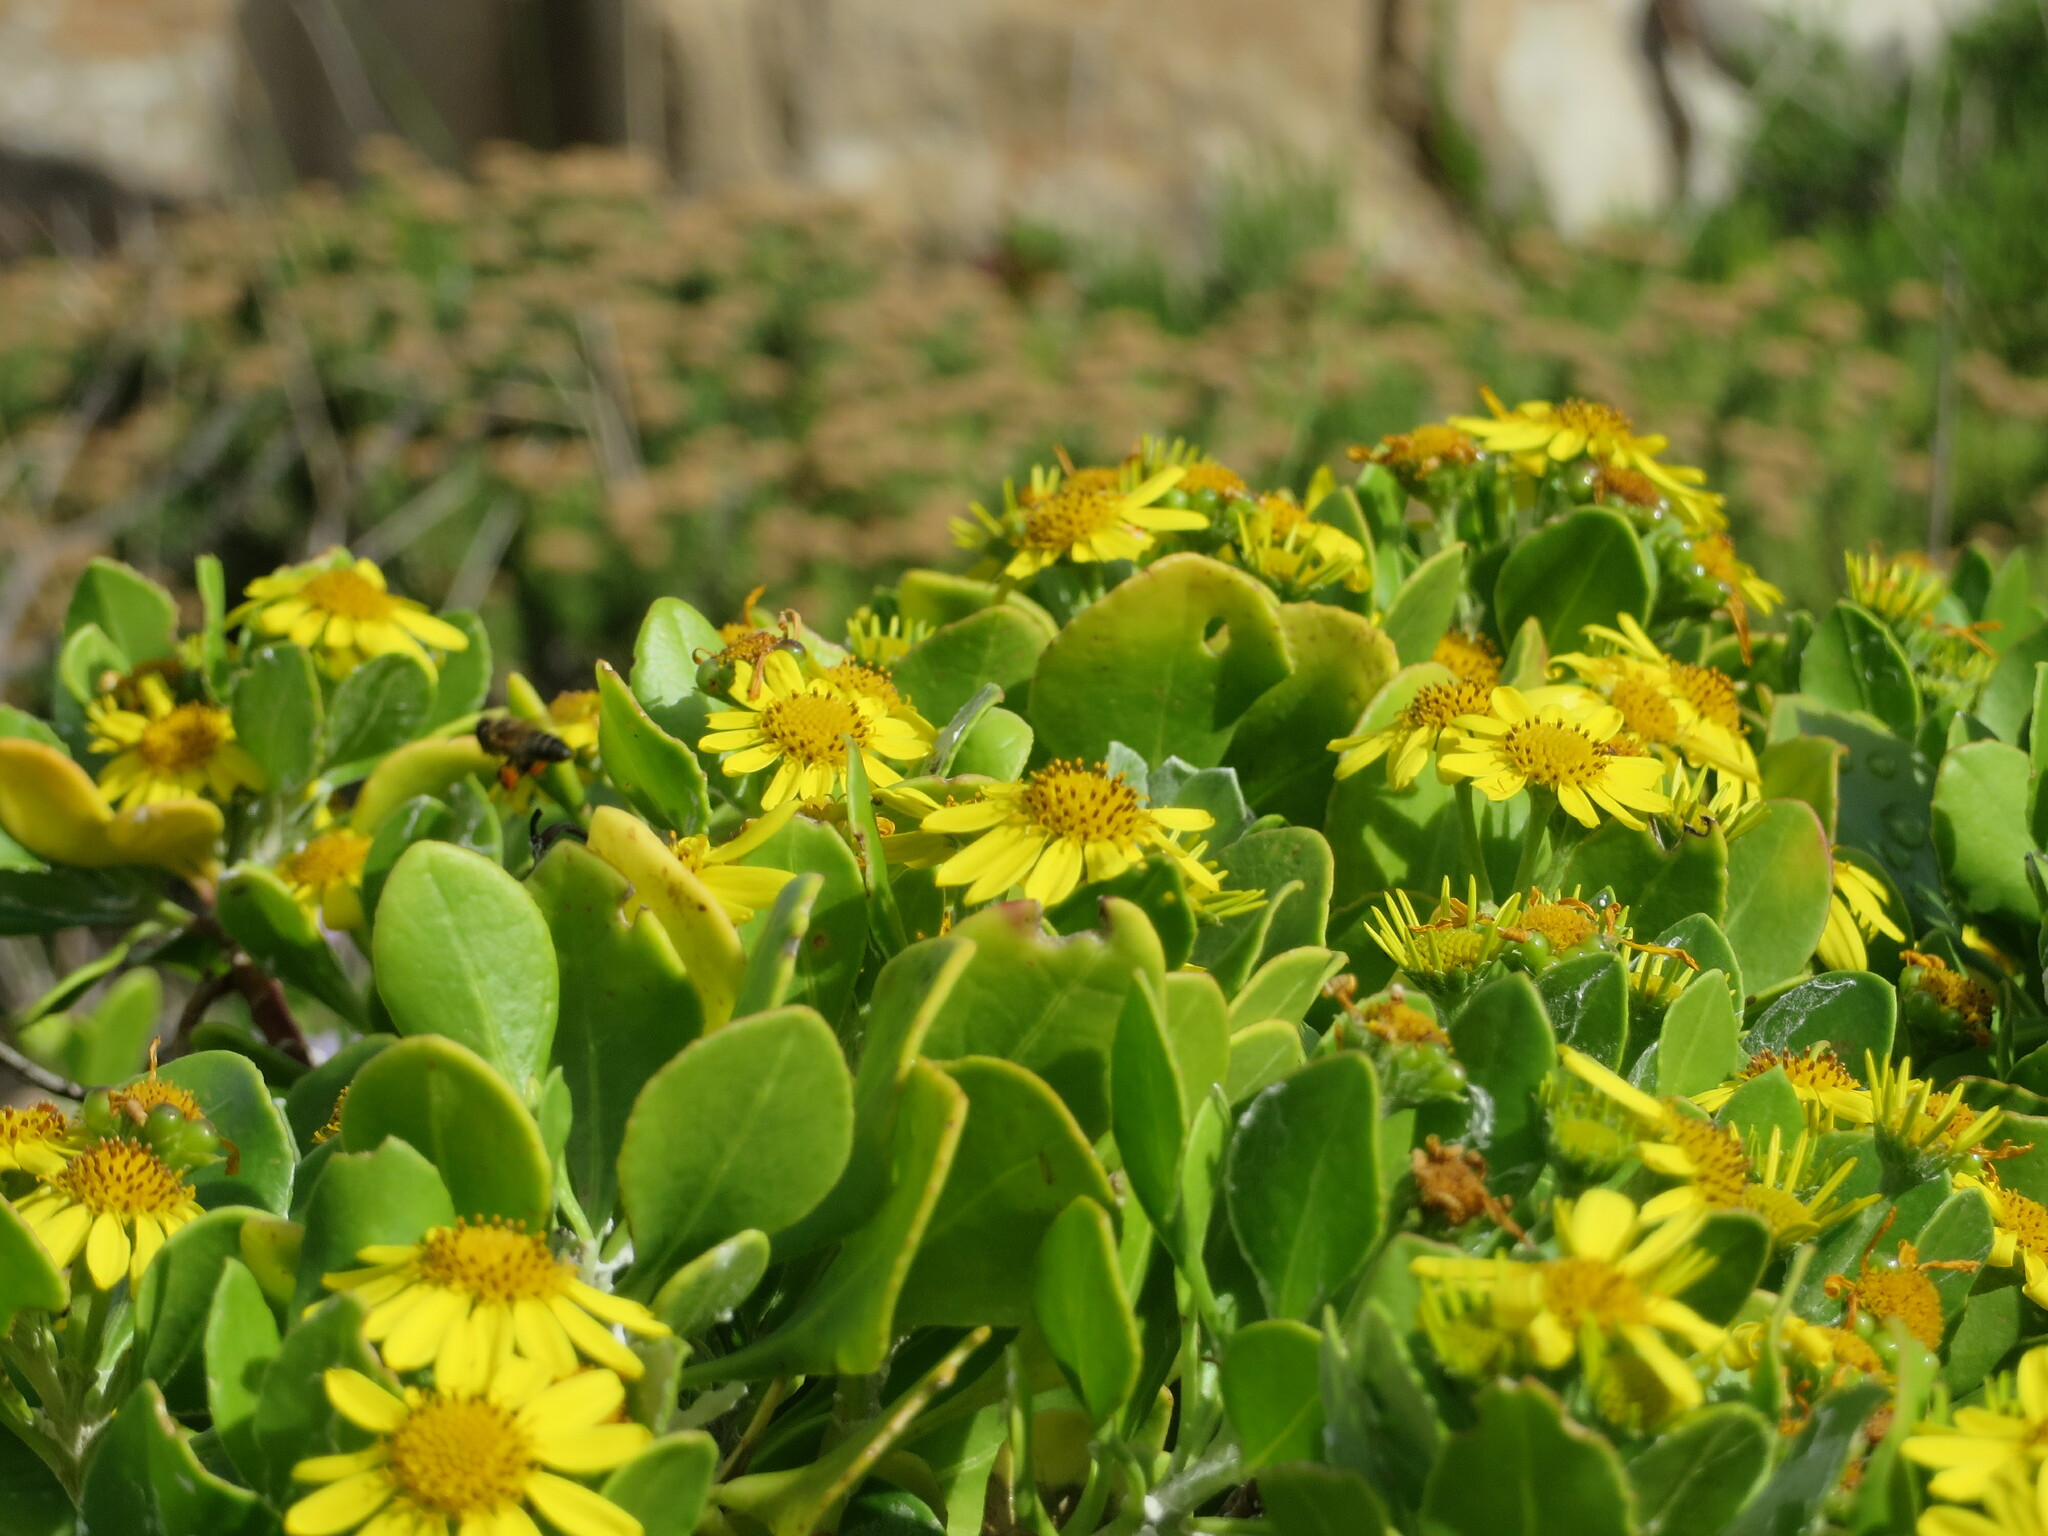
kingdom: Animalia
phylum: Arthropoda
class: Insecta
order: Hymenoptera
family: Apidae
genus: Apis
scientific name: Apis mellifera
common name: Honey bee
